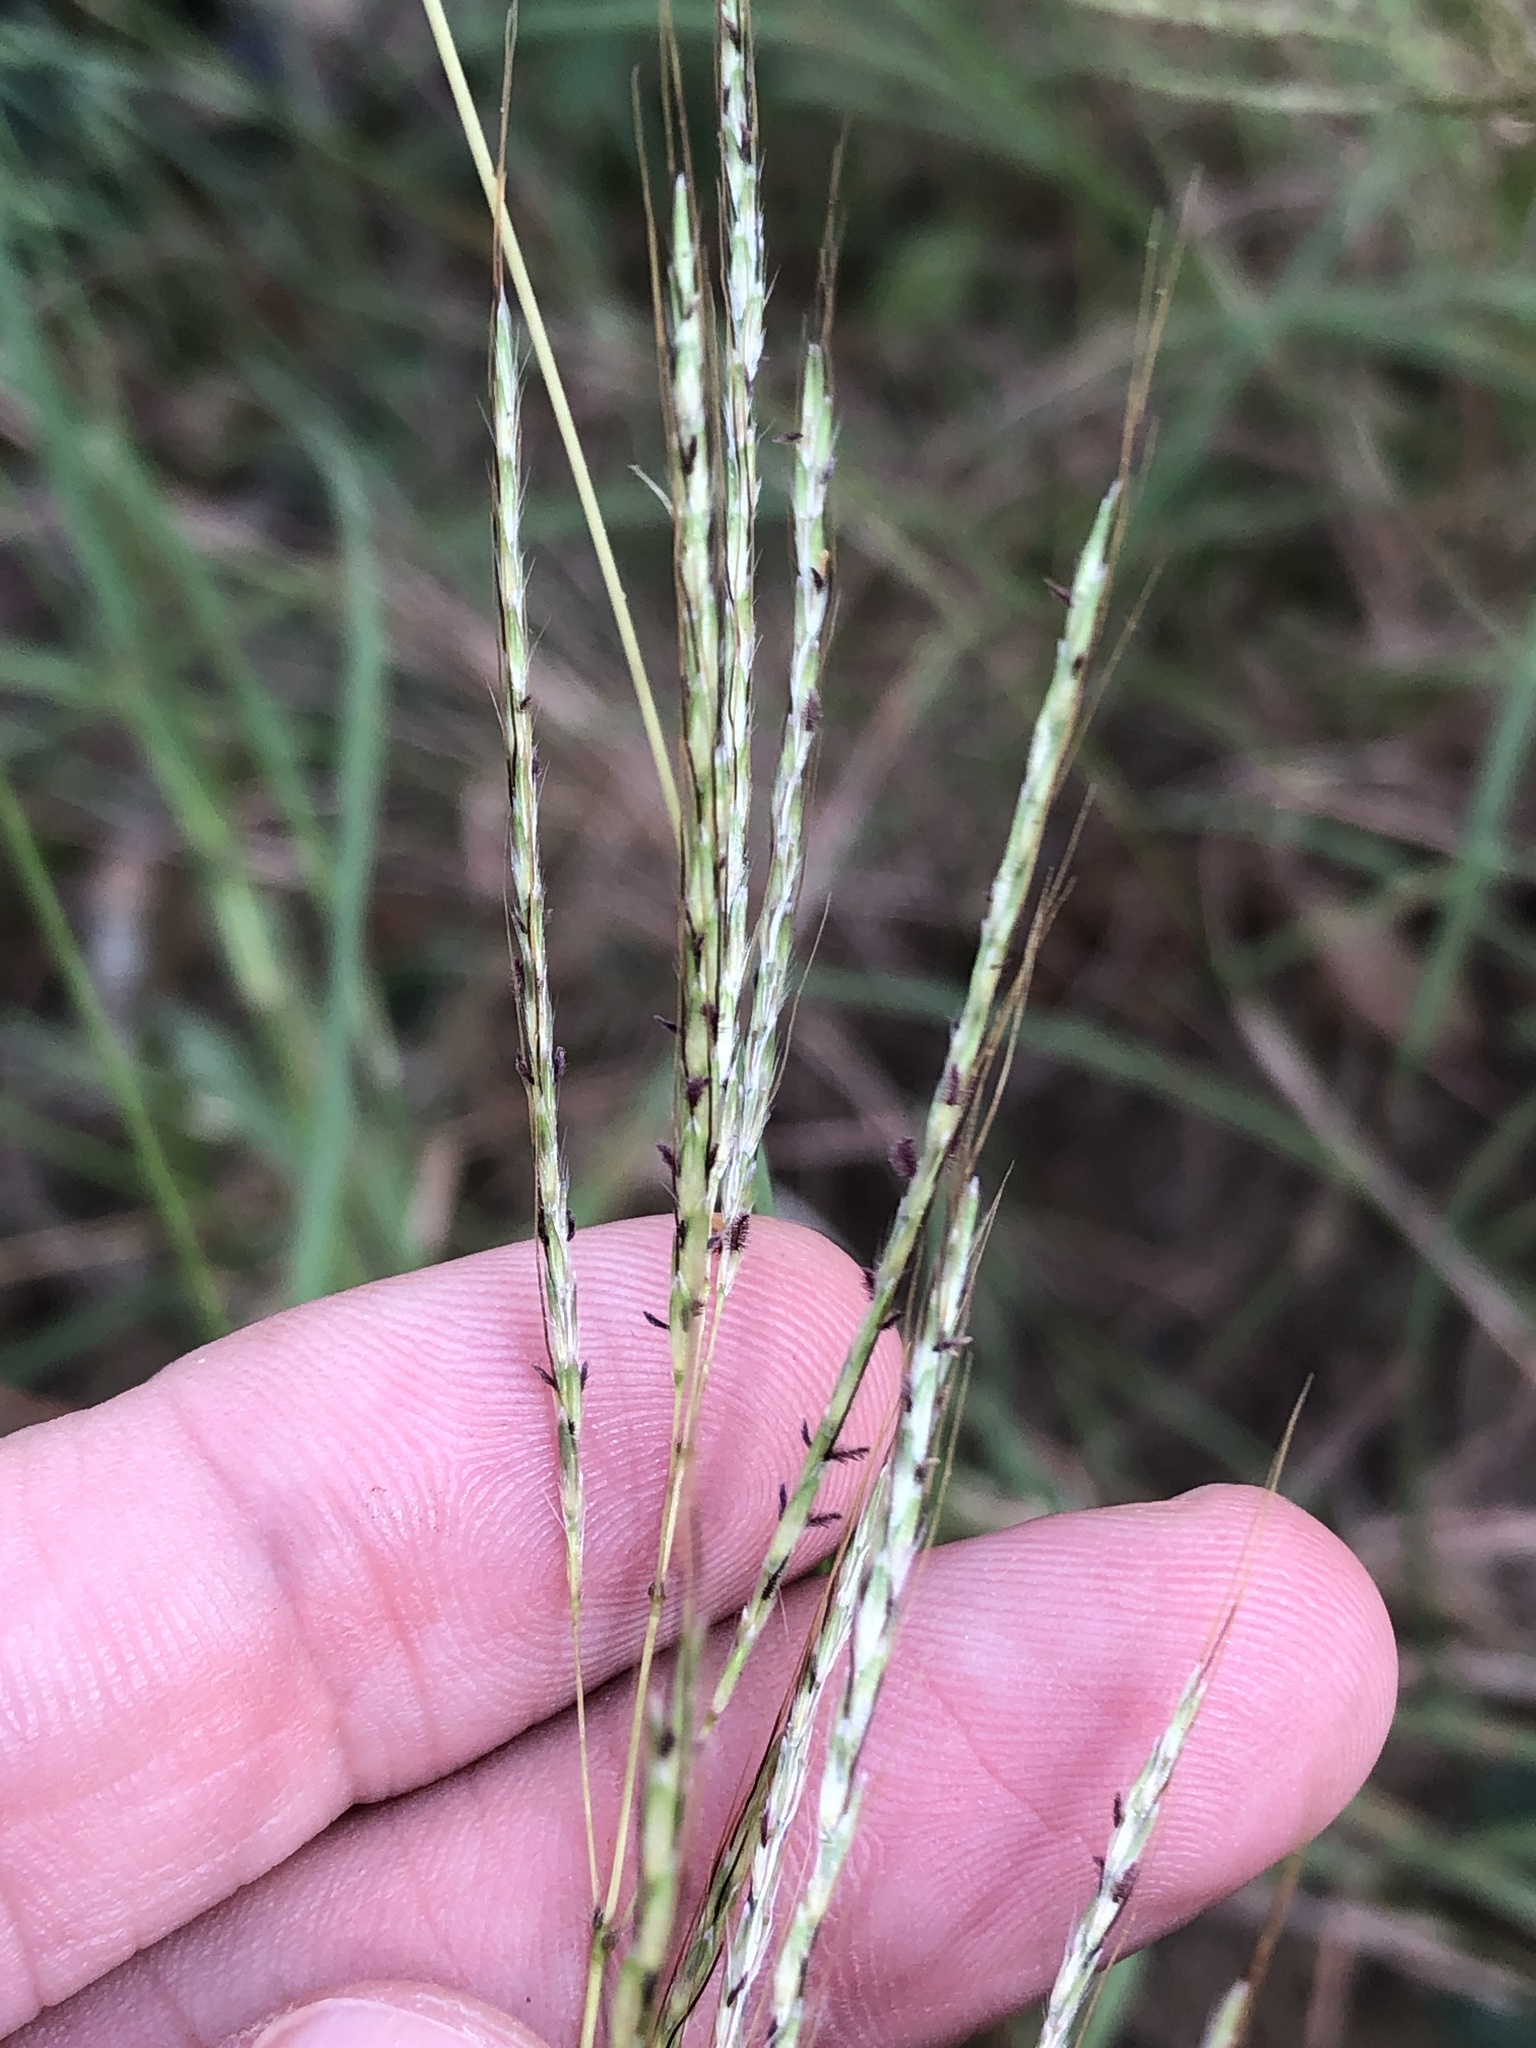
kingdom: Plantae
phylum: Tracheophyta
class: Liliopsida
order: Poales
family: Poaceae
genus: Bothriochloa
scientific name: Bothriochloa ischaemum
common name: Yellow bluestem
